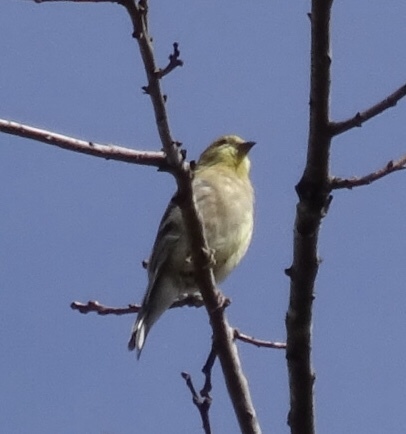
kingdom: Animalia
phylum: Chordata
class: Aves
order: Passeriformes
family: Fringillidae
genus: Spinus
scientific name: Spinus tristis
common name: American goldfinch
